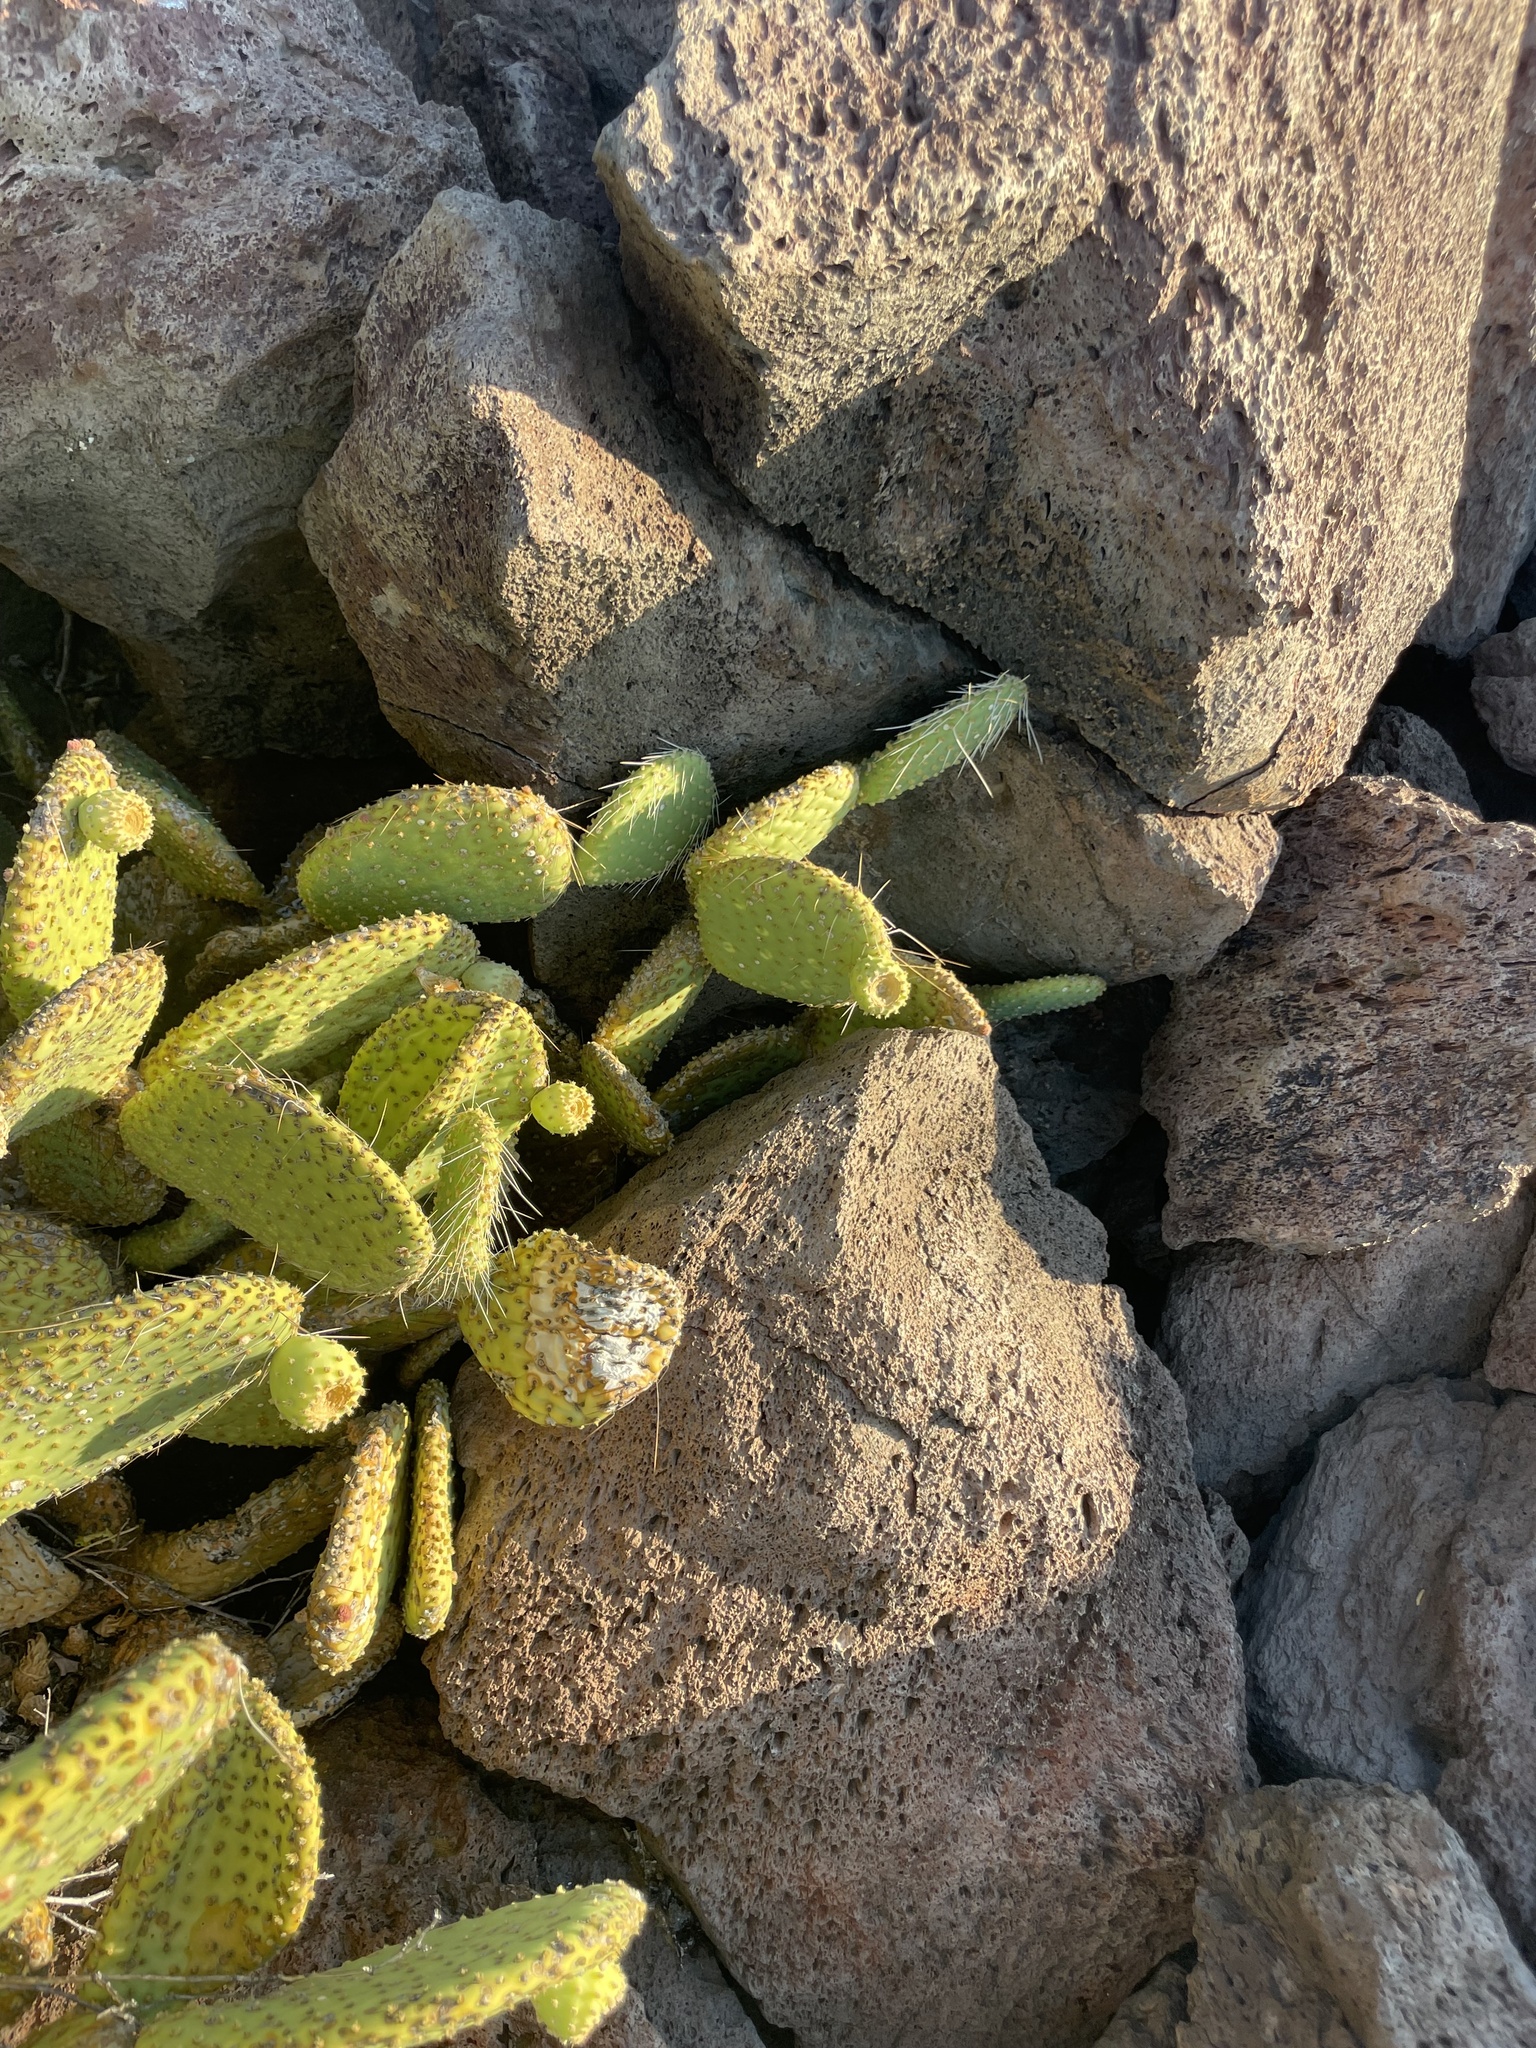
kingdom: Plantae
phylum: Tracheophyta
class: Magnoliopsida
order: Caryophyllales
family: Cactaceae
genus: Opuntia
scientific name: Opuntia tapona
